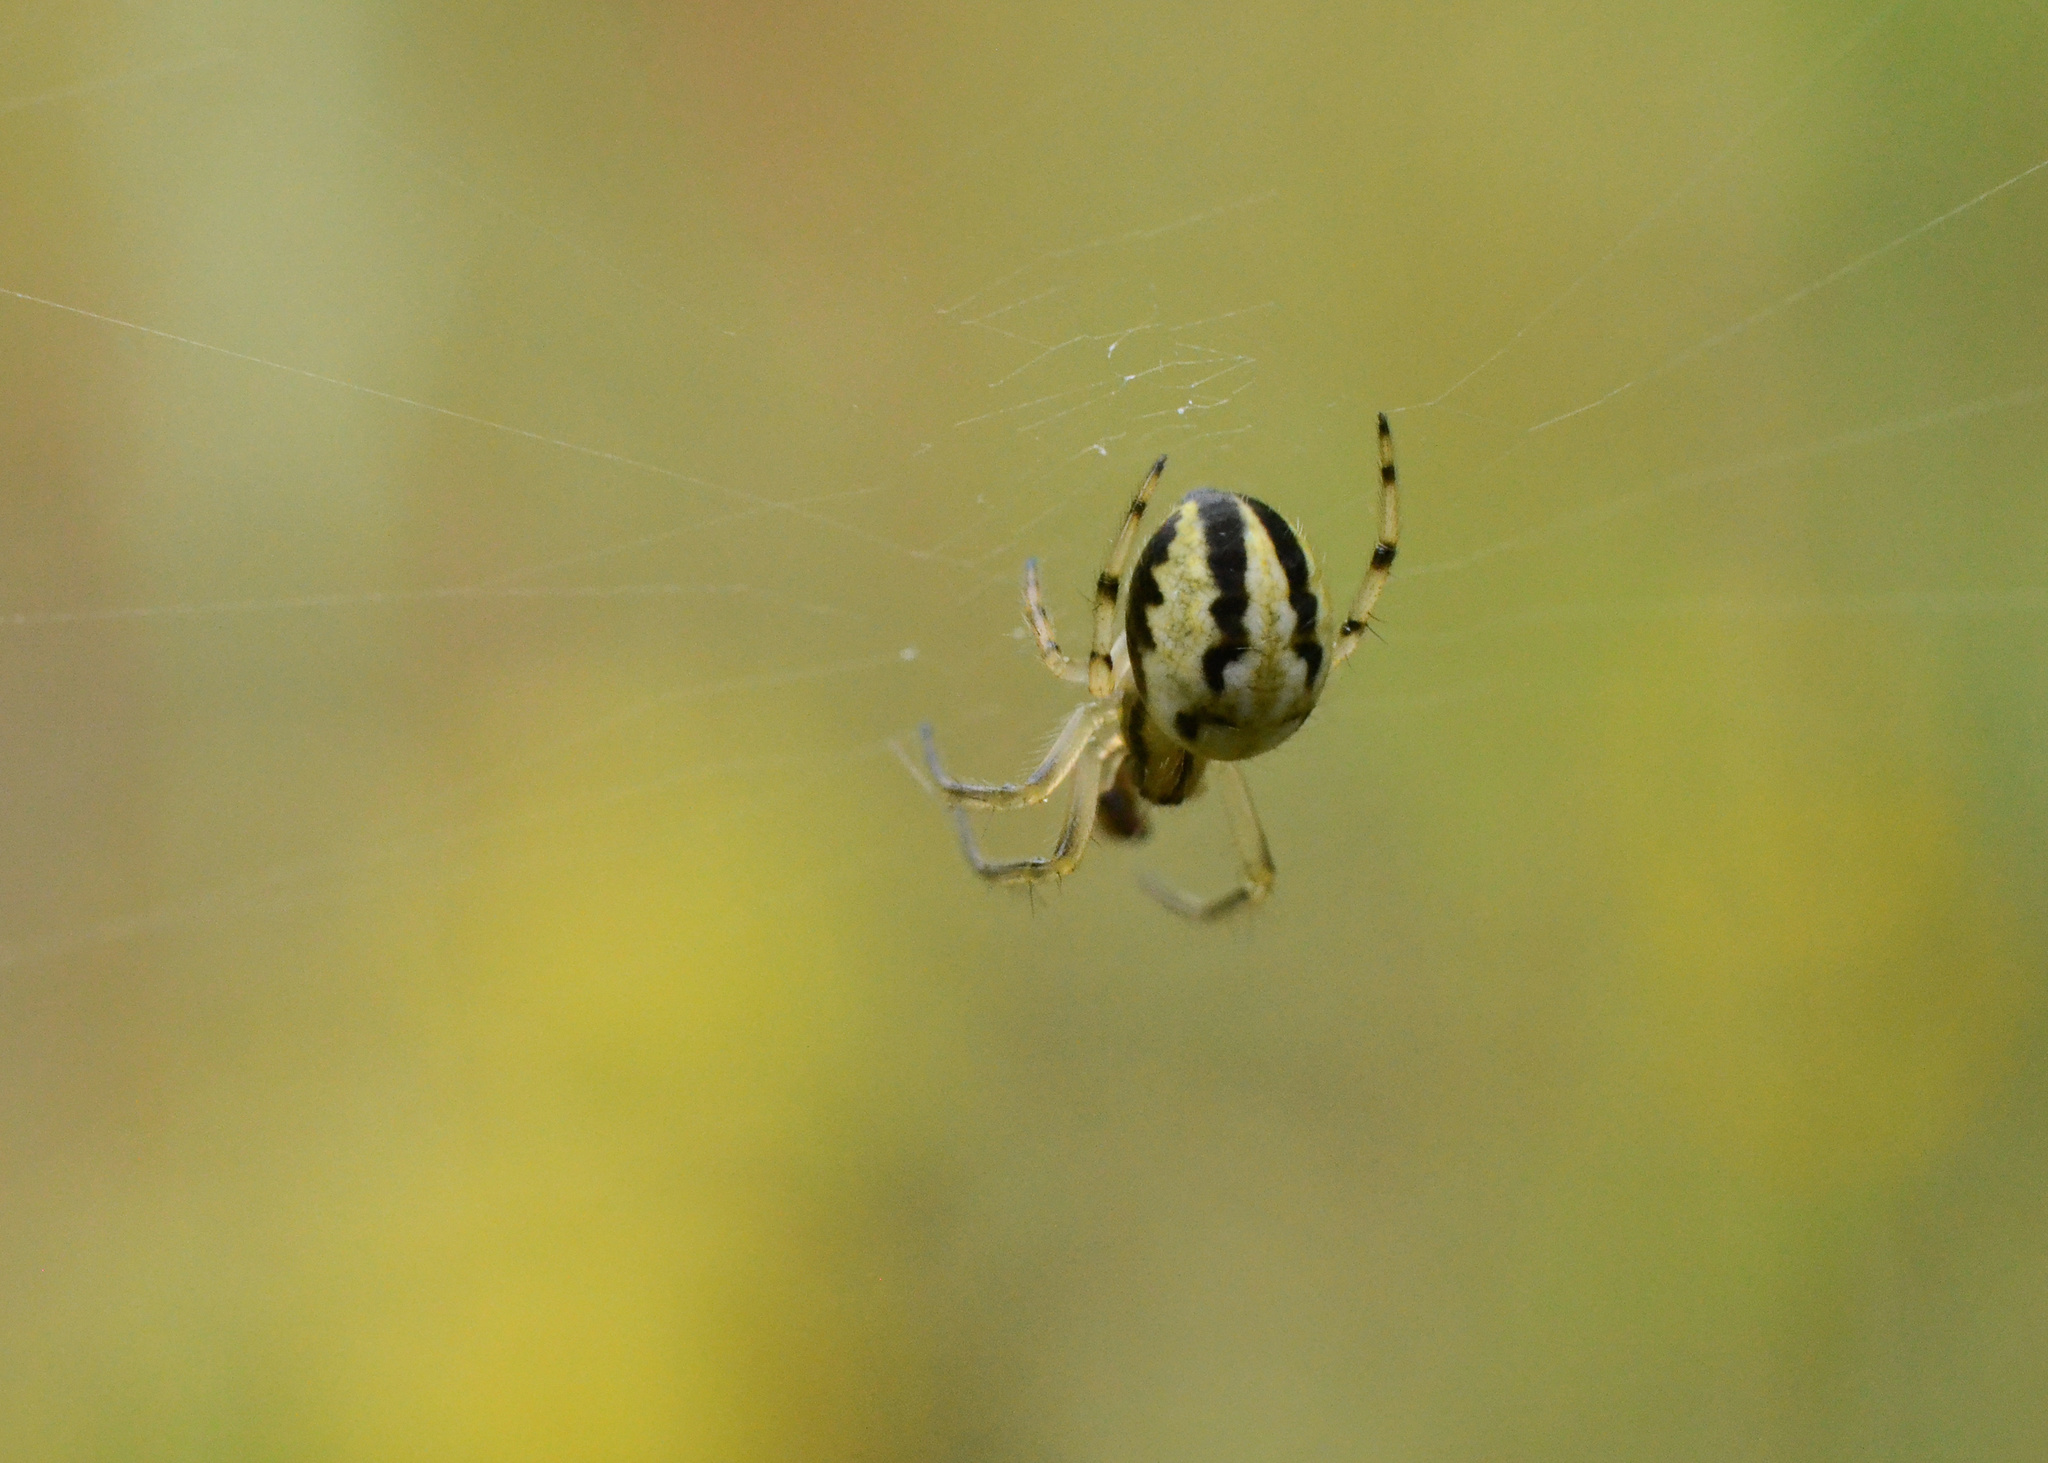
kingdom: Animalia
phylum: Arthropoda
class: Arachnida
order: Araneae
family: Araneidae
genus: Neoscona
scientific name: Neoscona adianta
